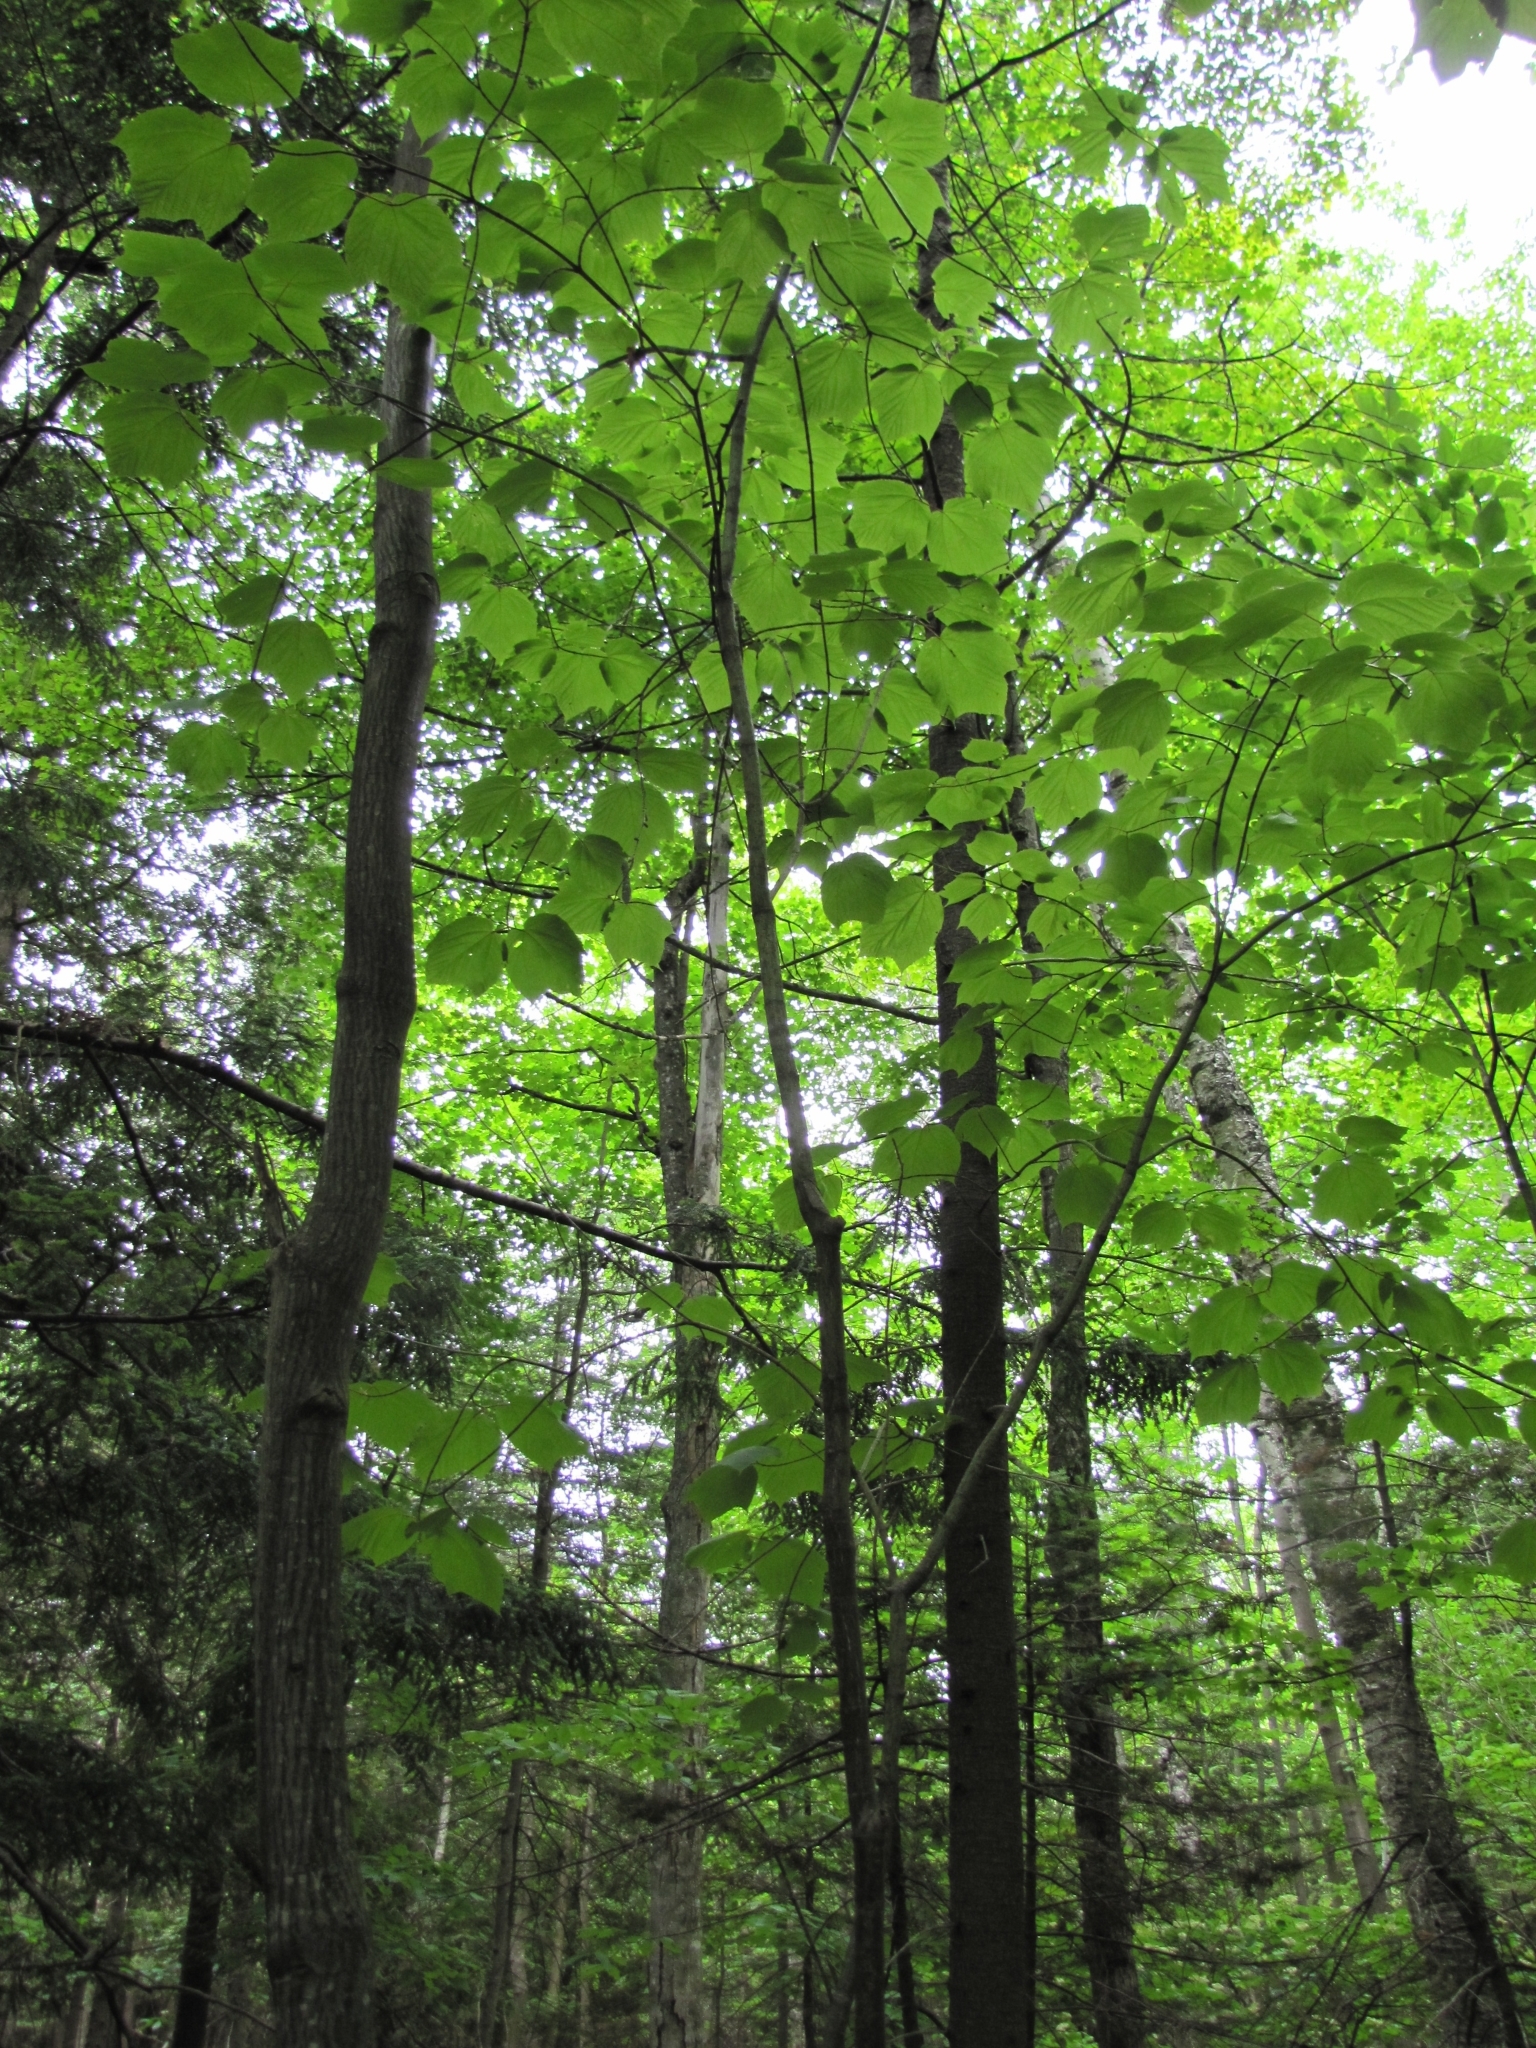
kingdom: Plantae
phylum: Tracheophyta
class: Magnoliopsida
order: Sapindales
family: Sapindaceae
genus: Acer
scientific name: Acer pensylvanicum
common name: Moosewood
